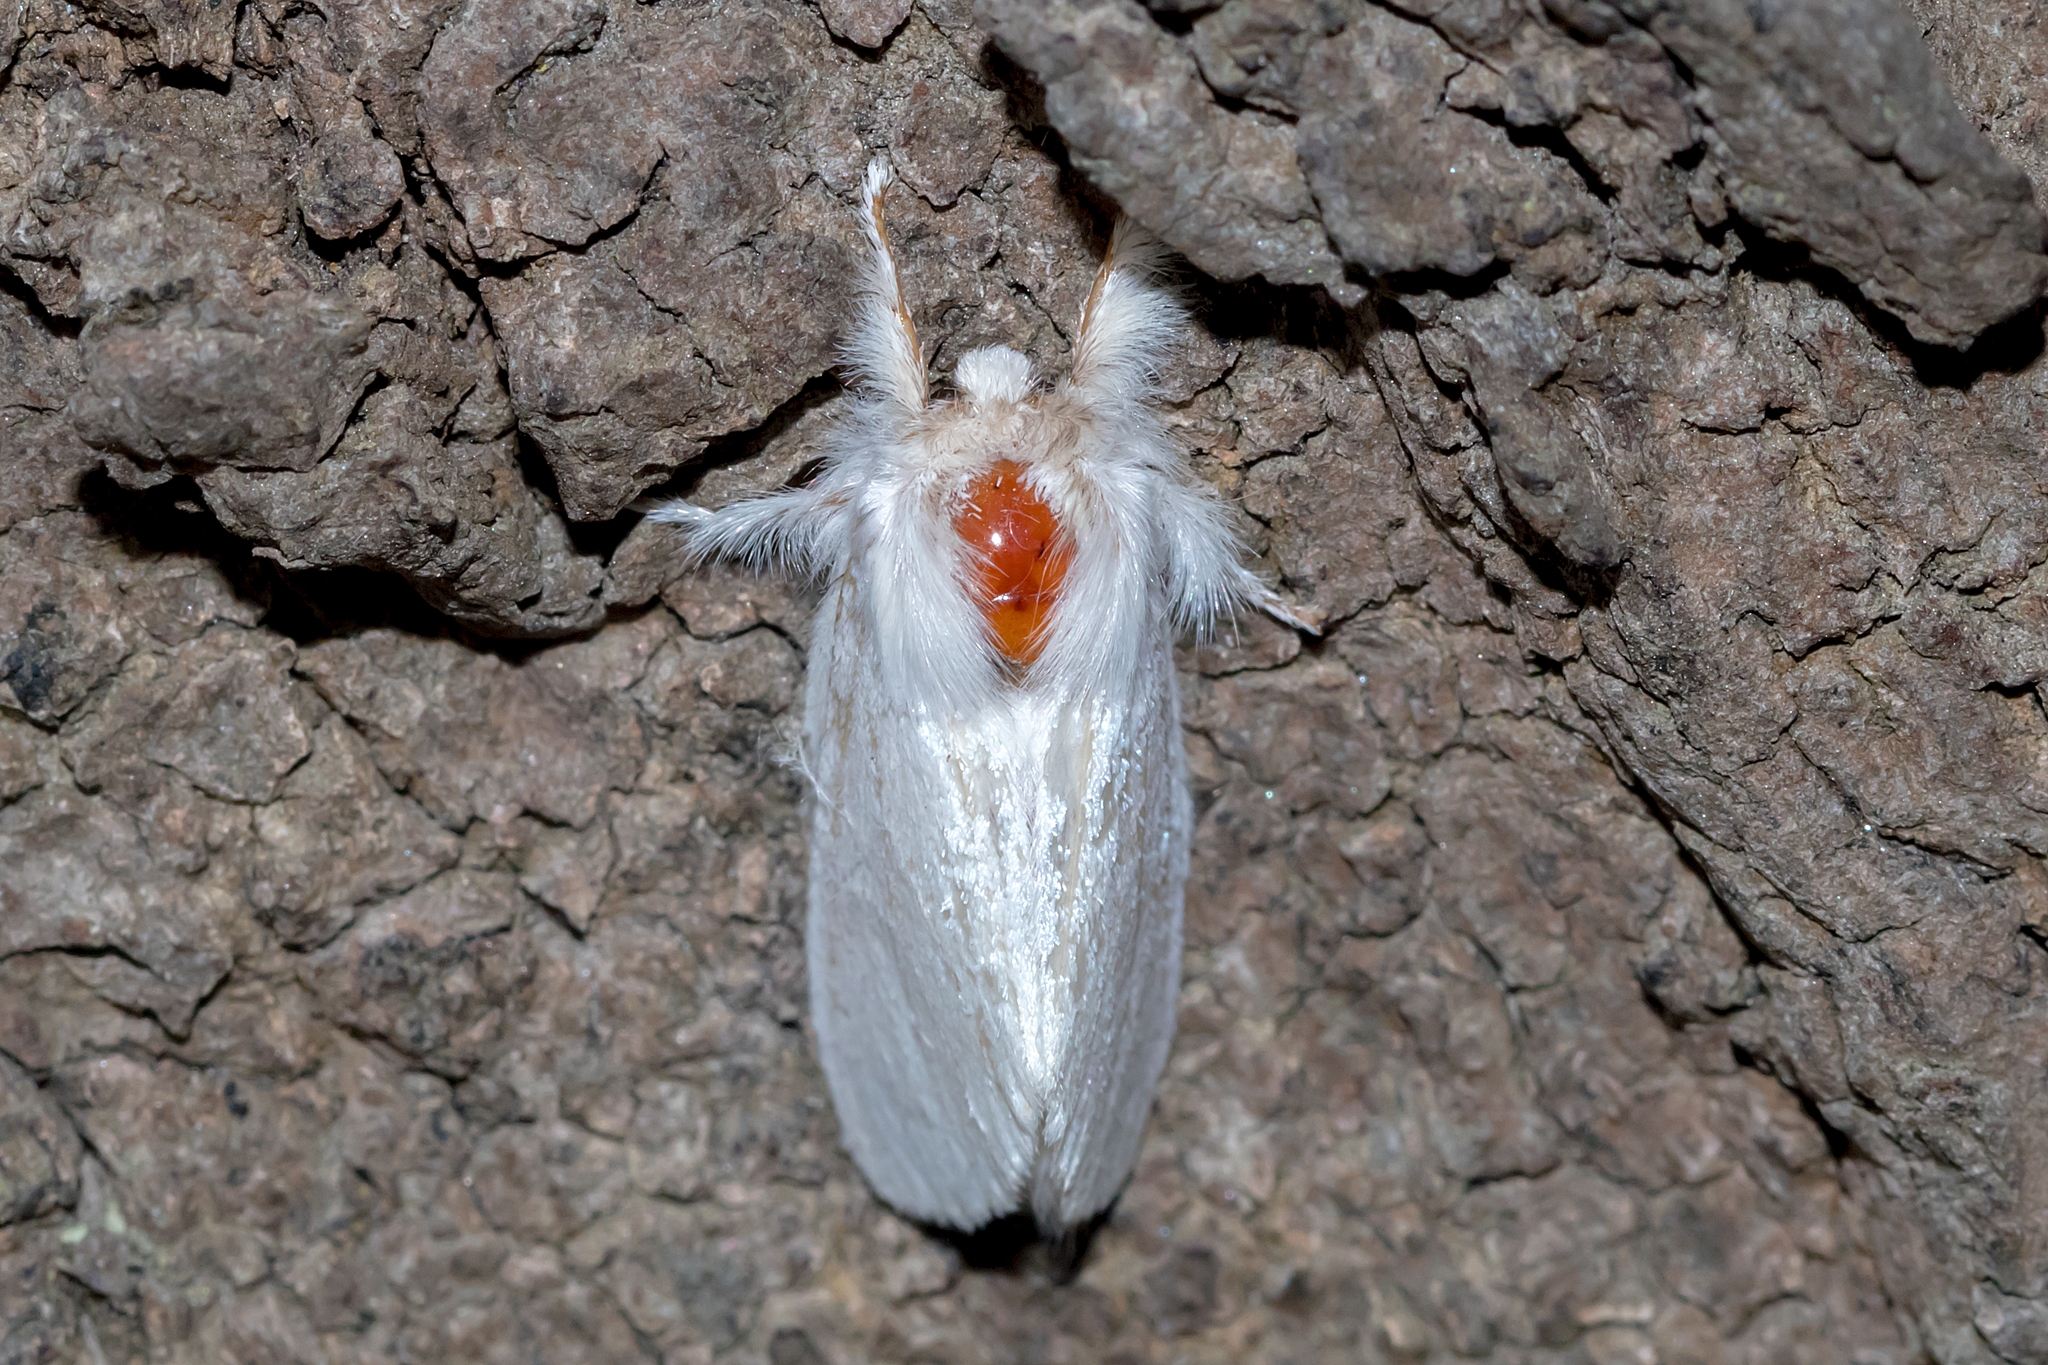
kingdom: Animalia
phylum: Arthropoda
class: Insecta
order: Lepidoptera
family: Notodontidae
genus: Trichiocercus
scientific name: Trichiocercus sparshalli
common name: Long-tailed satin
